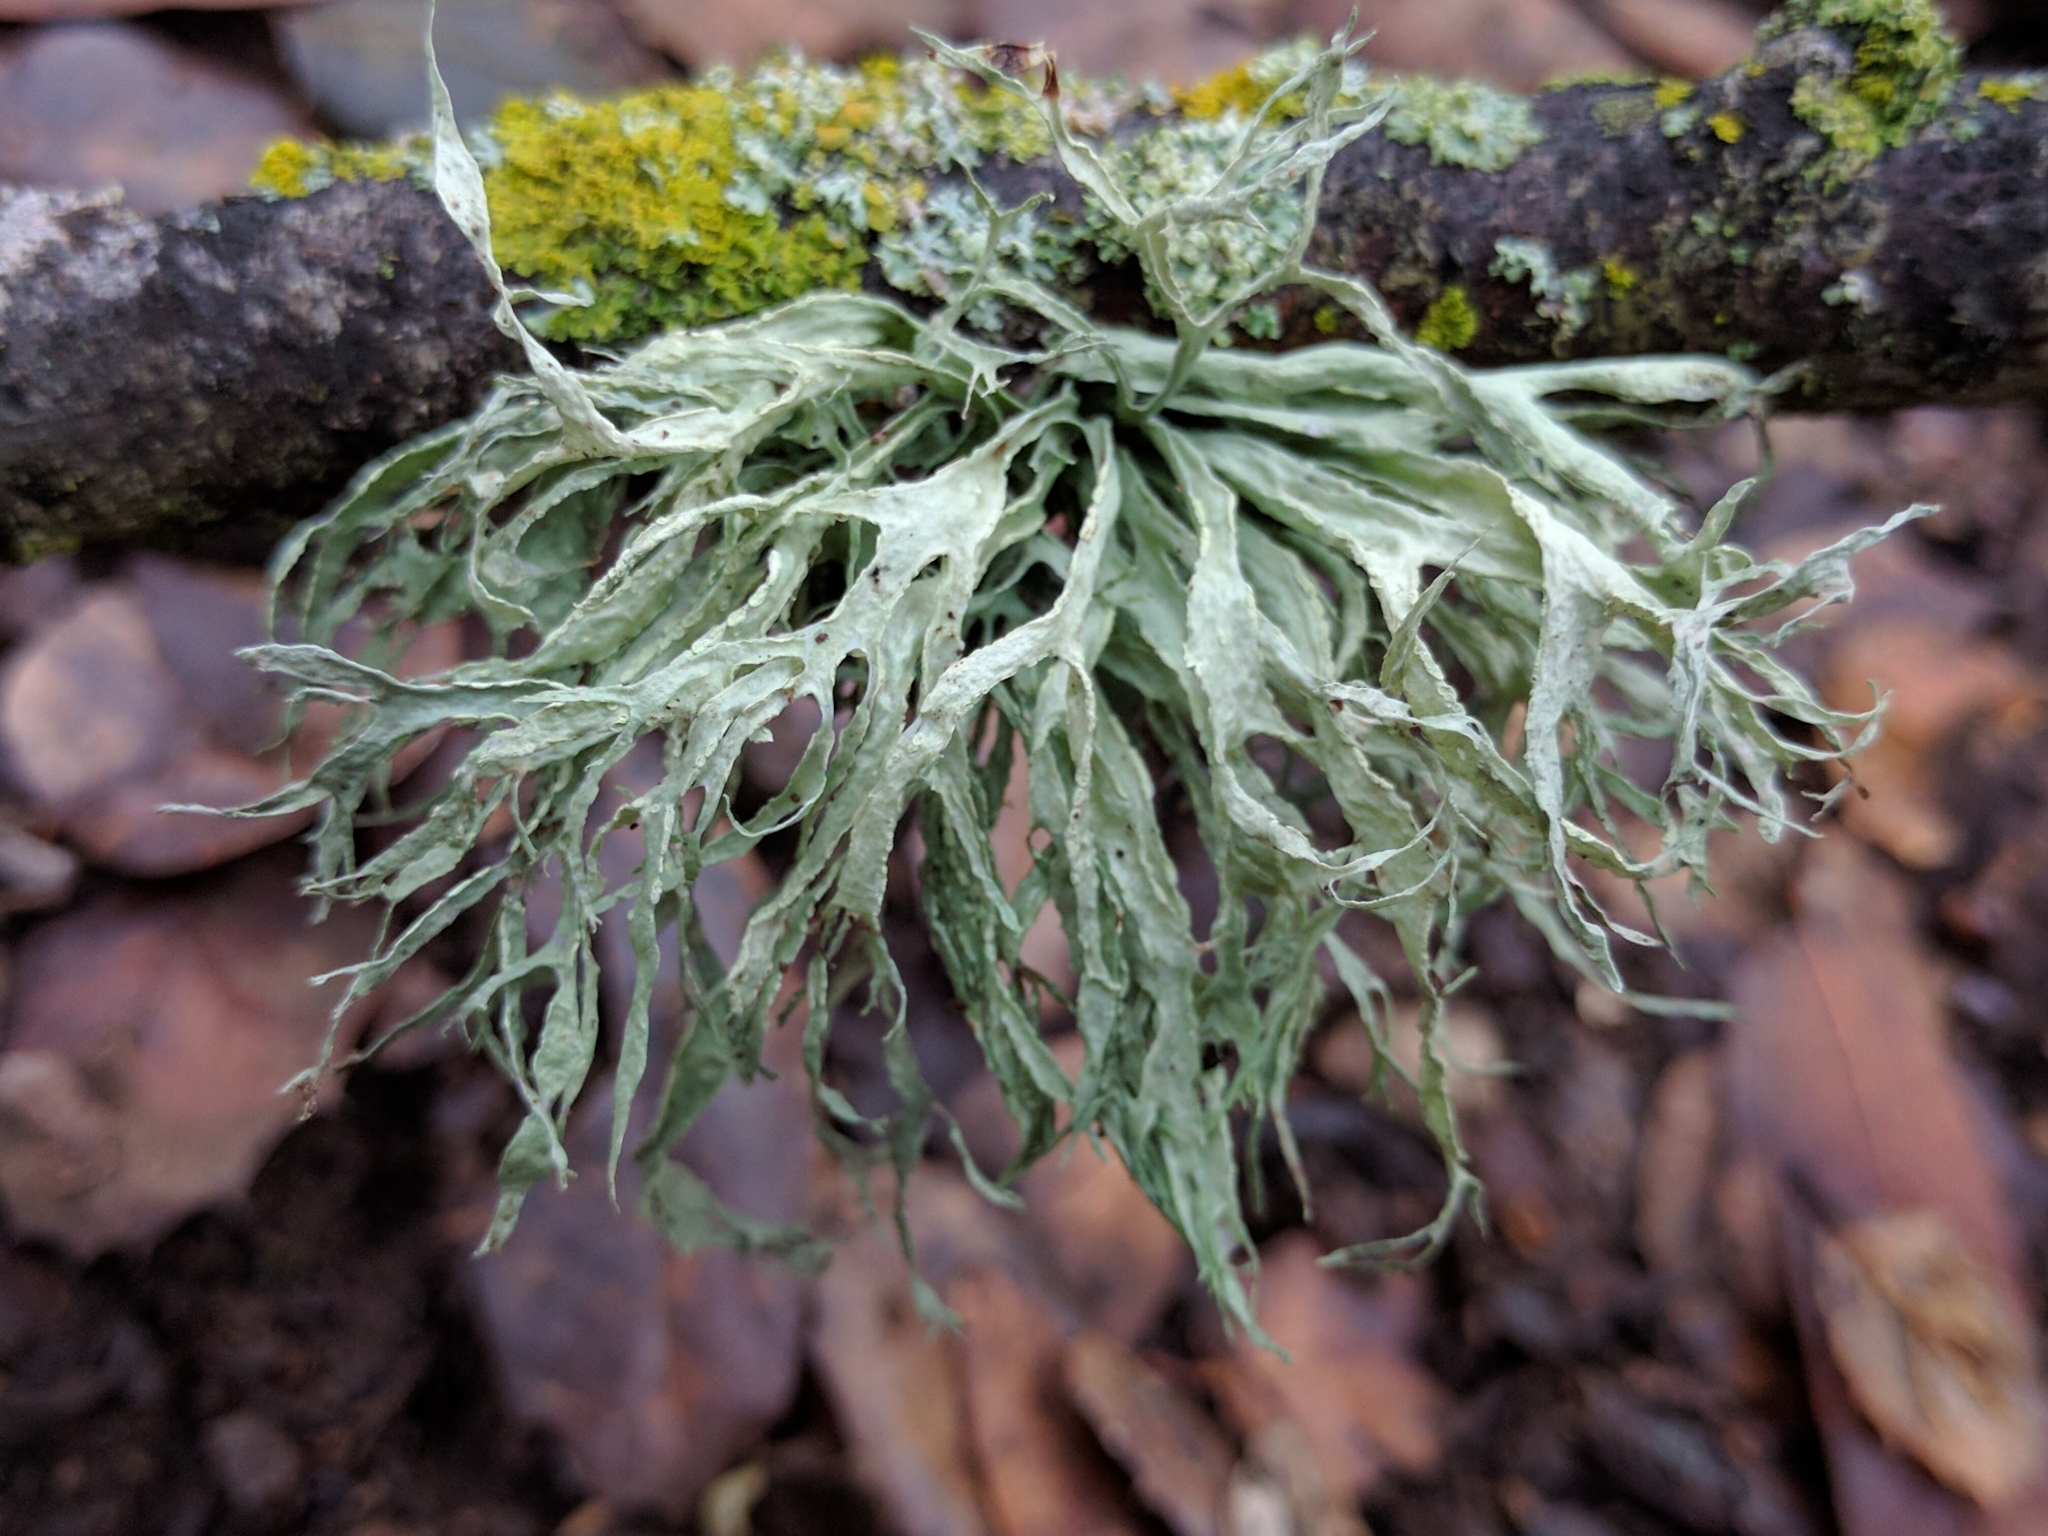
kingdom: Fungi
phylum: Ascomycota
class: Lecanoromycetes
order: Lecanorales
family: Ramalinaceae
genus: Ramalina
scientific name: Ramalina farinacea
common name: Farinose cartilage lichen
